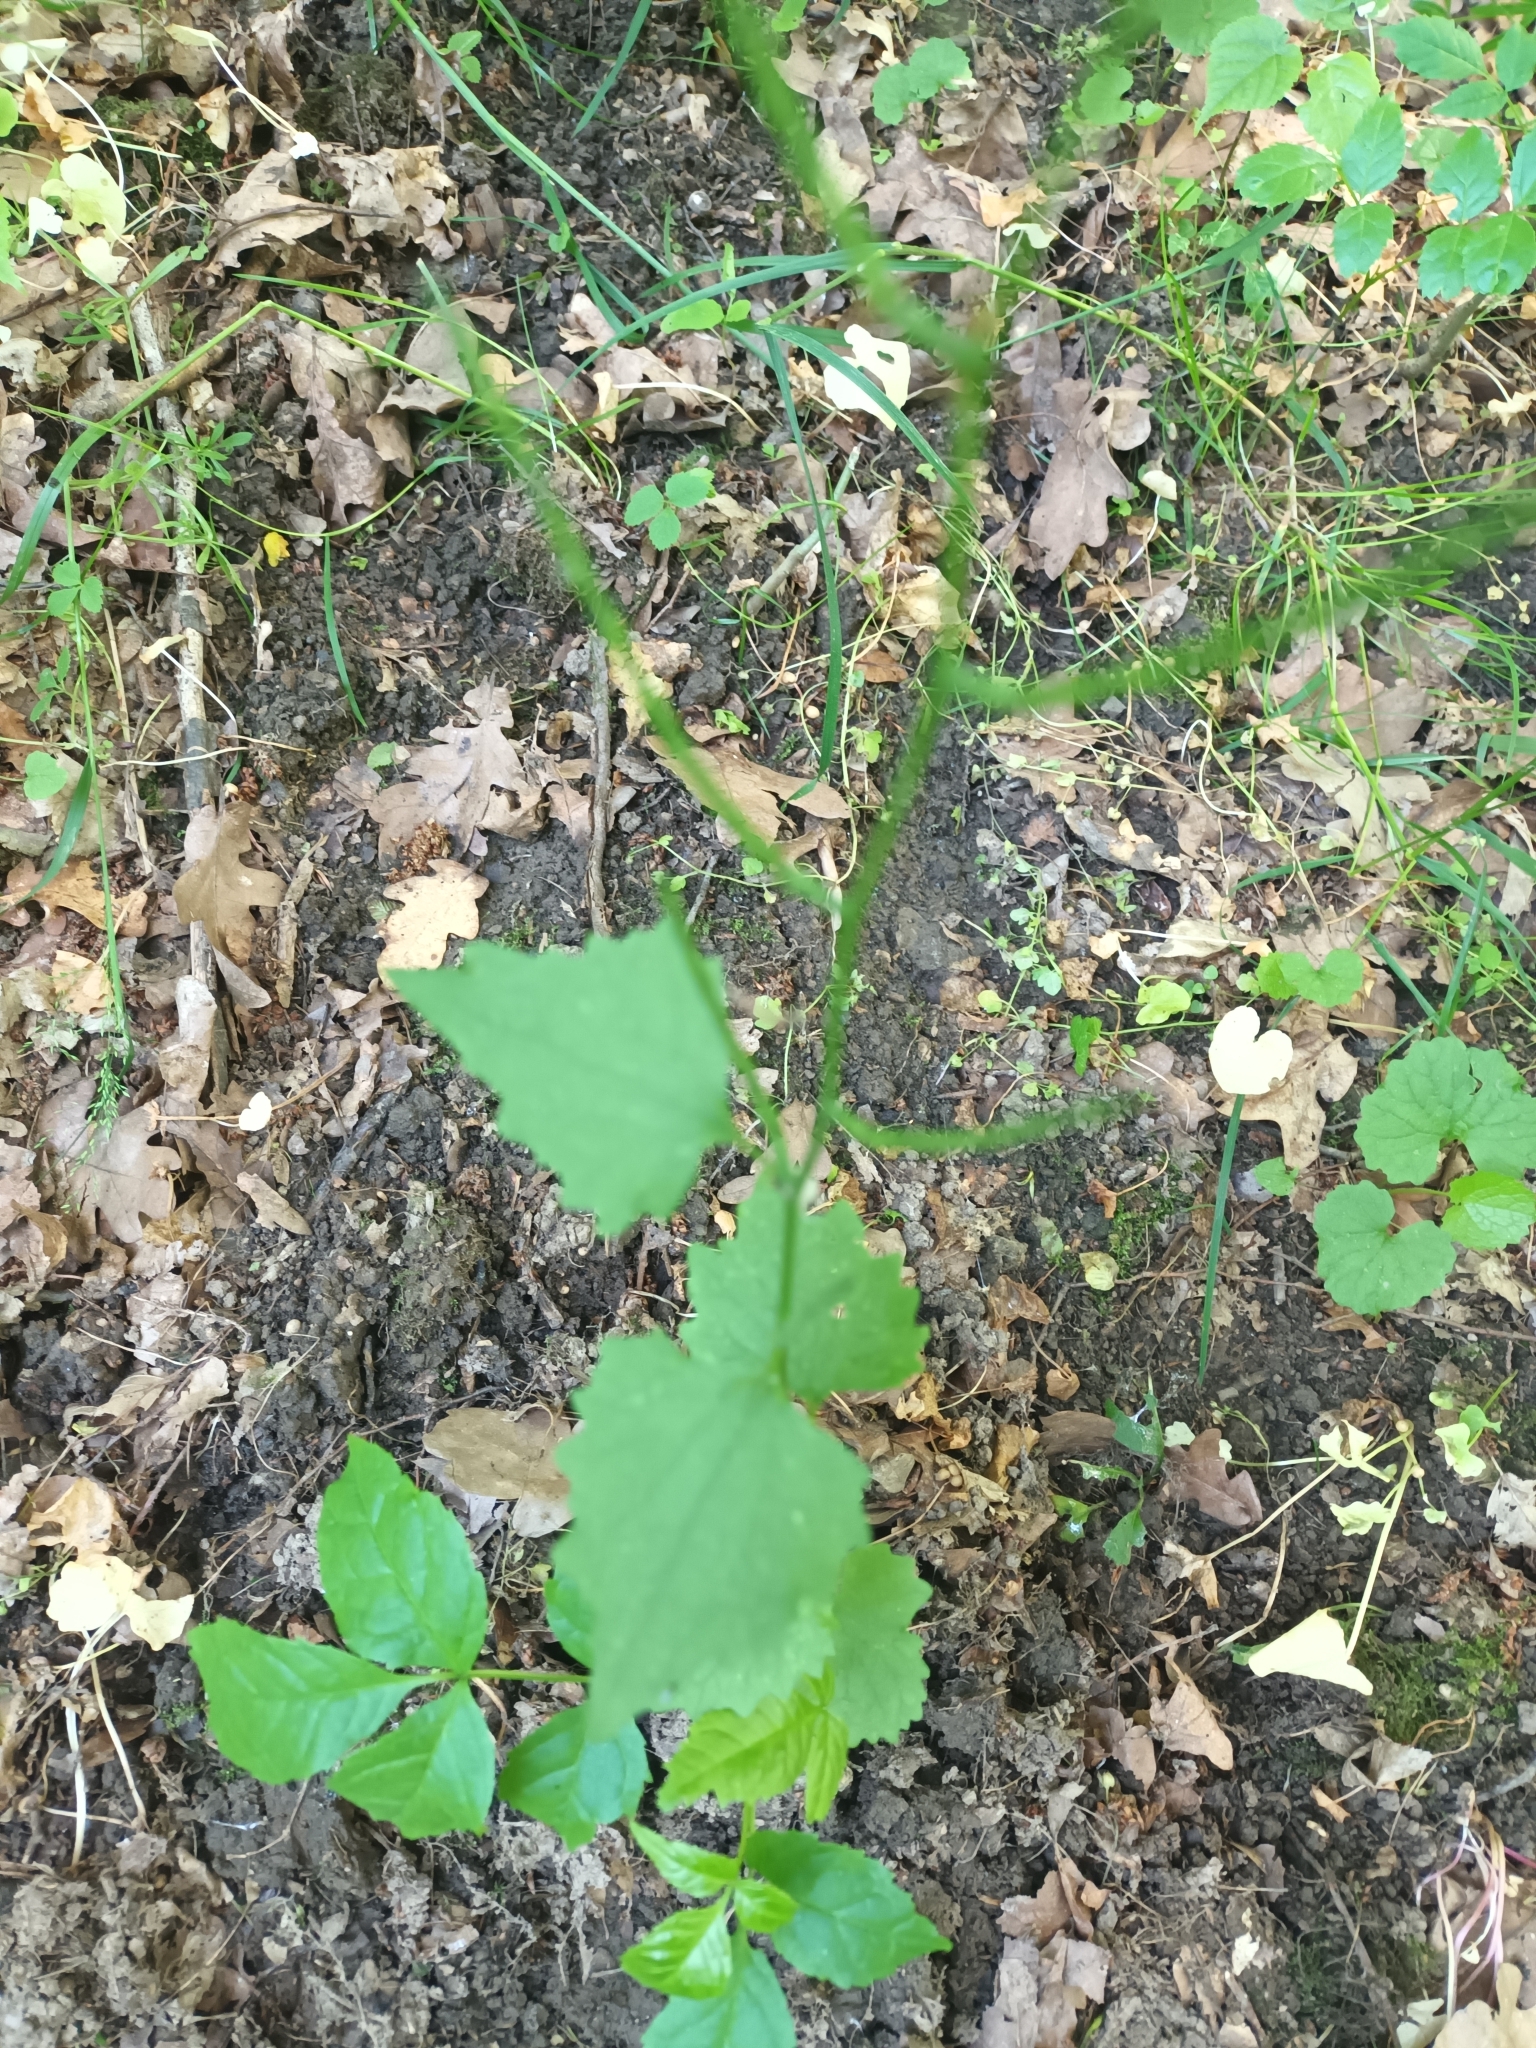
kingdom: Plantae
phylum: Tracheophyta
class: Magnoliopsida
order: Brassicales
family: Brassicaceae
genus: Alliaria
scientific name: Alliaria petiolata
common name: Garlic mustard
